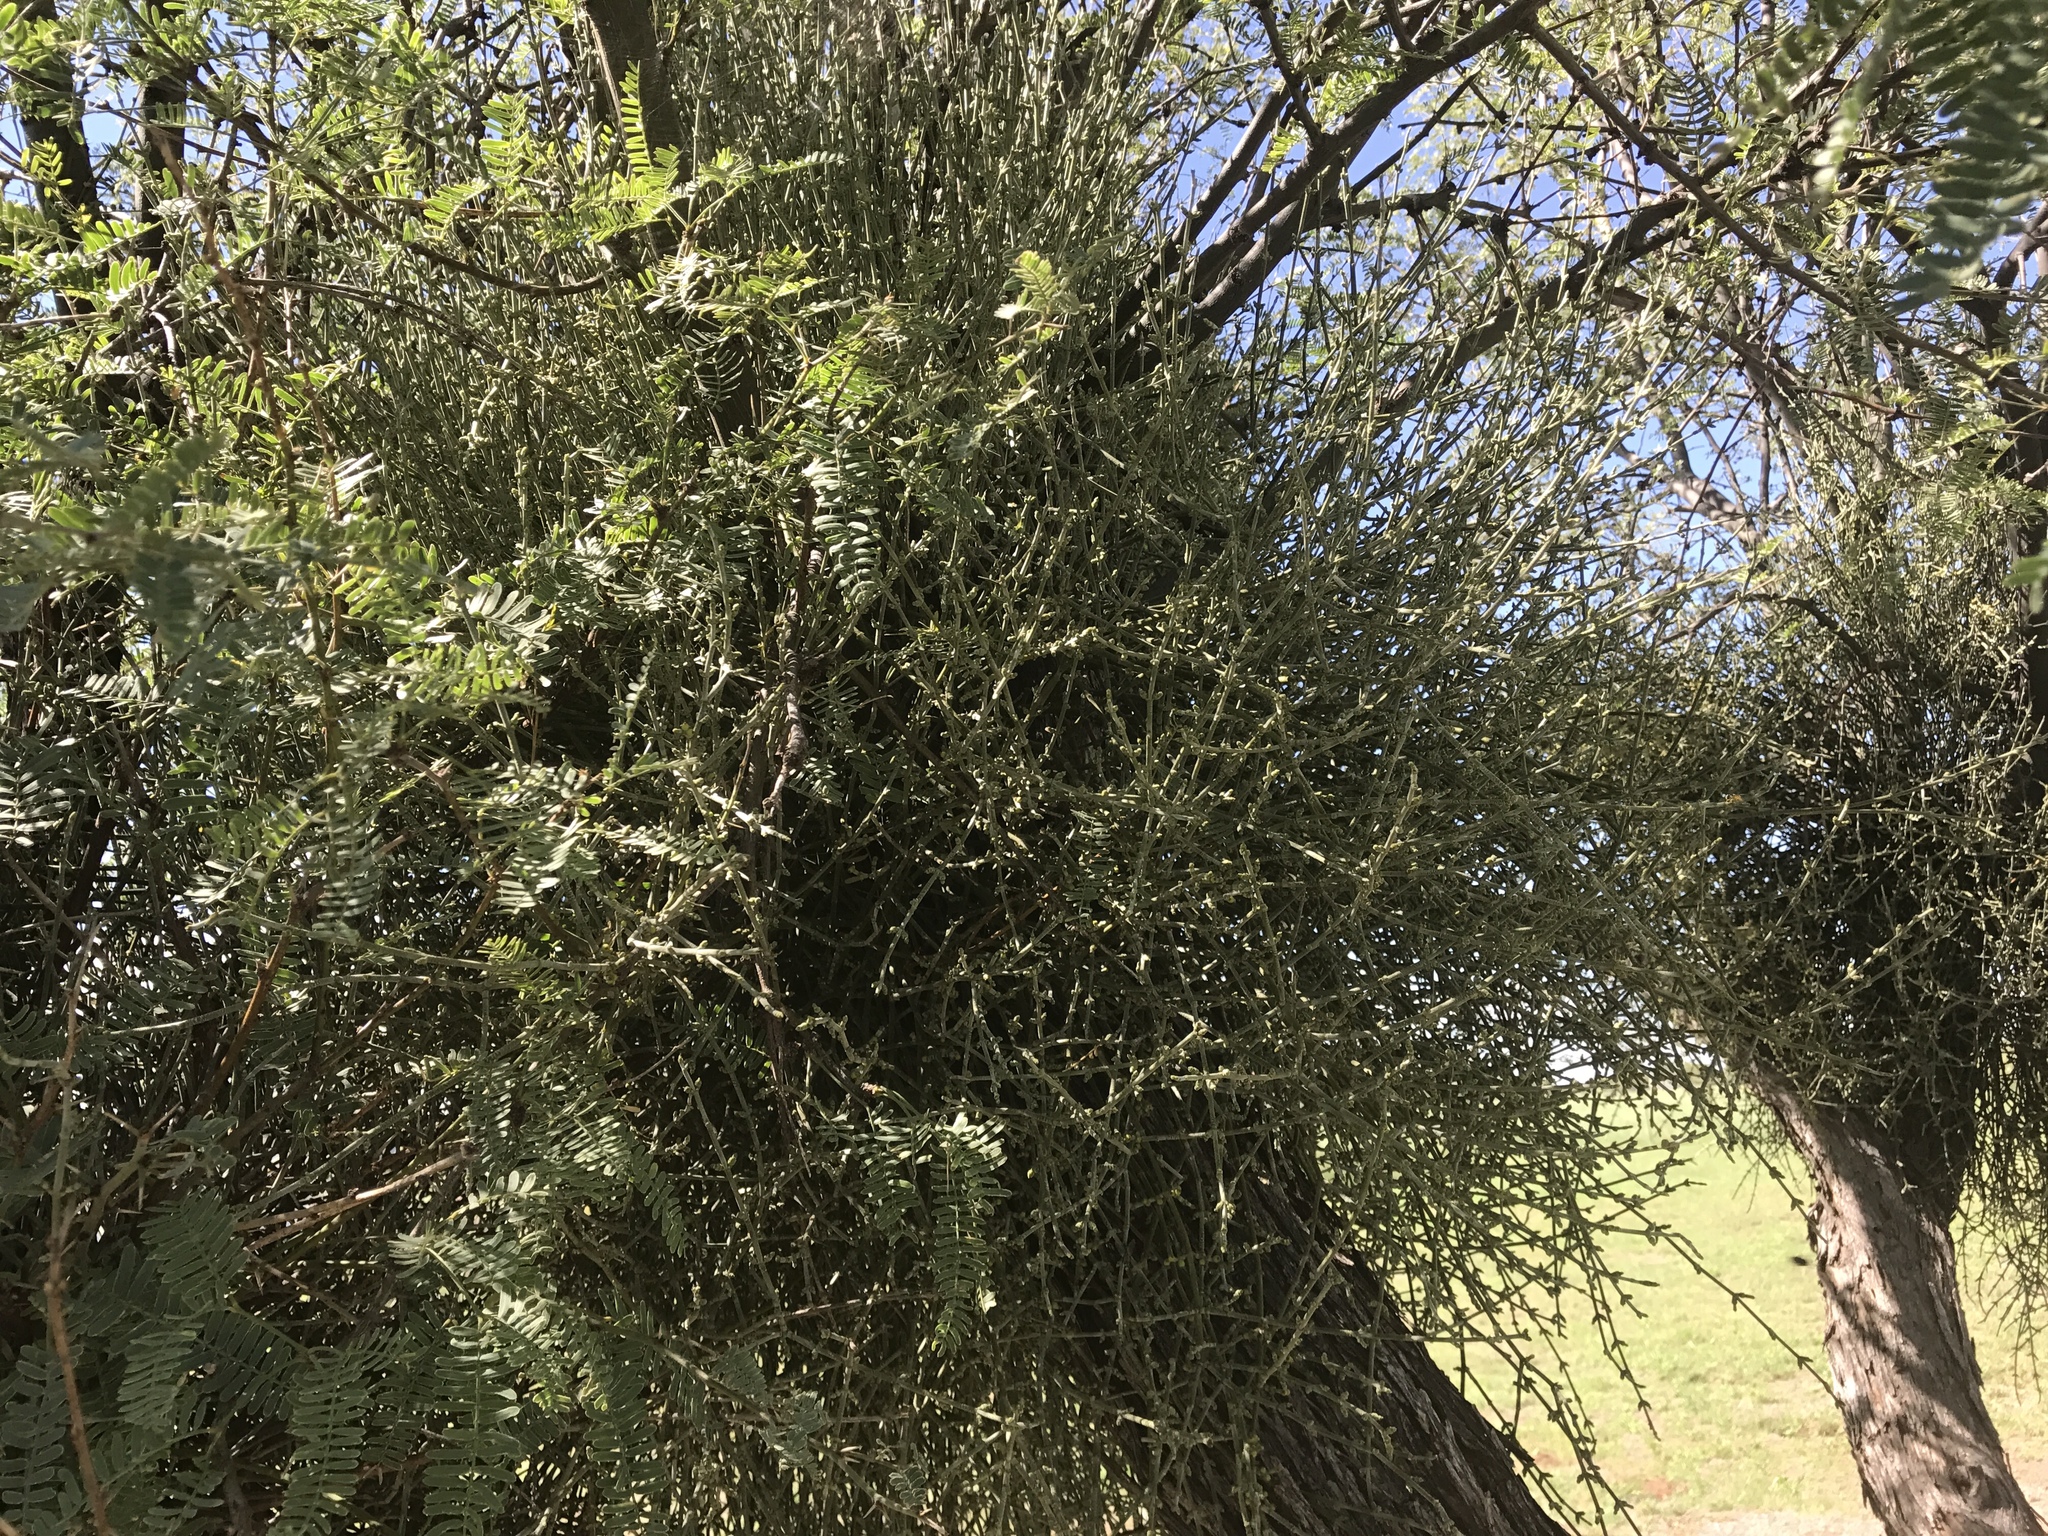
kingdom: Plantae
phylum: Tracheophyta
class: Magnoliopsida
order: Santalales
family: Viscaceae
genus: Phoradendron
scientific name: Phoradendron californicum
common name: Acacia mistletoe
